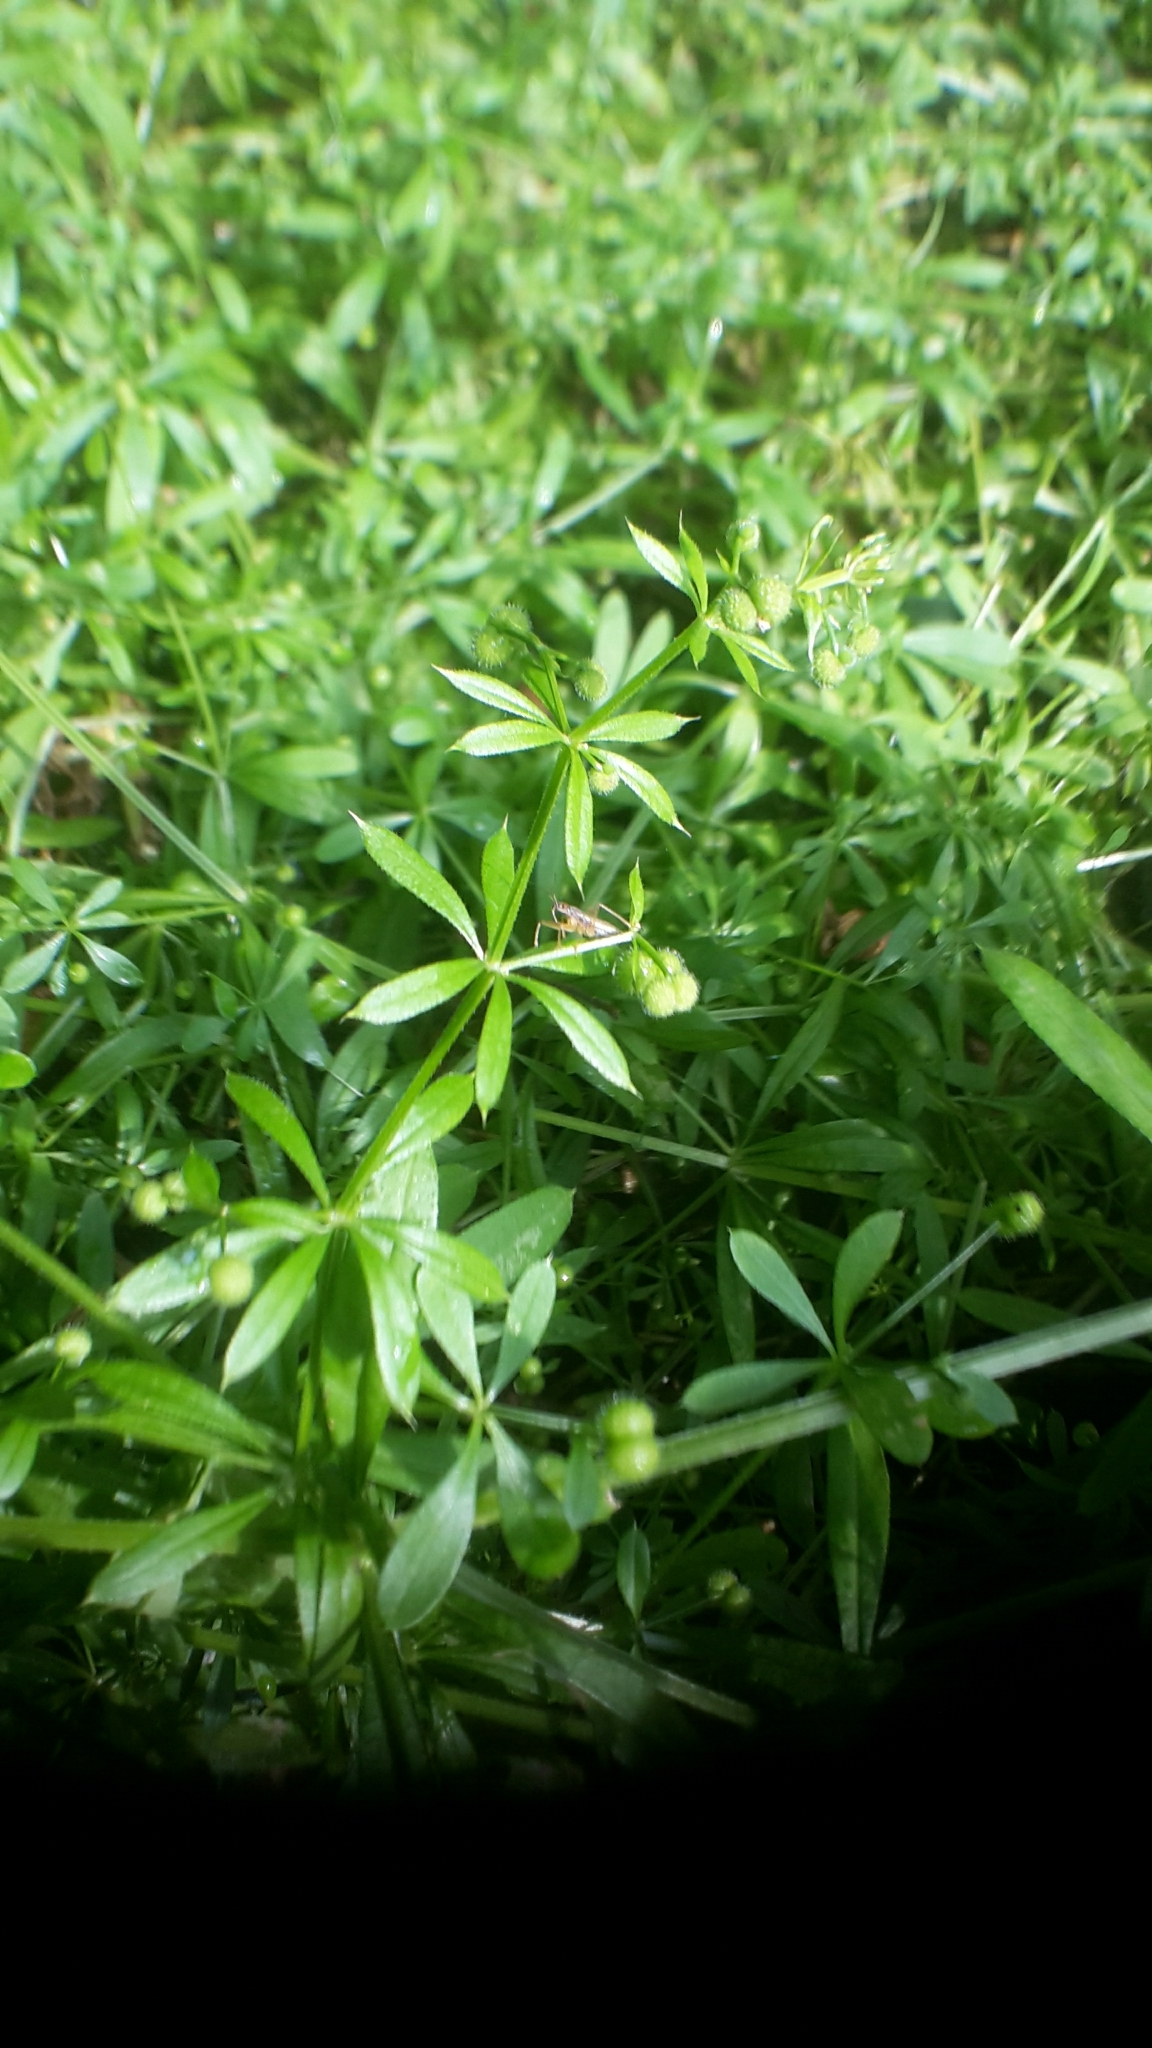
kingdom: Plantae
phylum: Tracheophyta
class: Magnoliopsida
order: Gentianales
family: Rubiaceae
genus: Galium
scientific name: Galium aparine
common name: Cleavers
